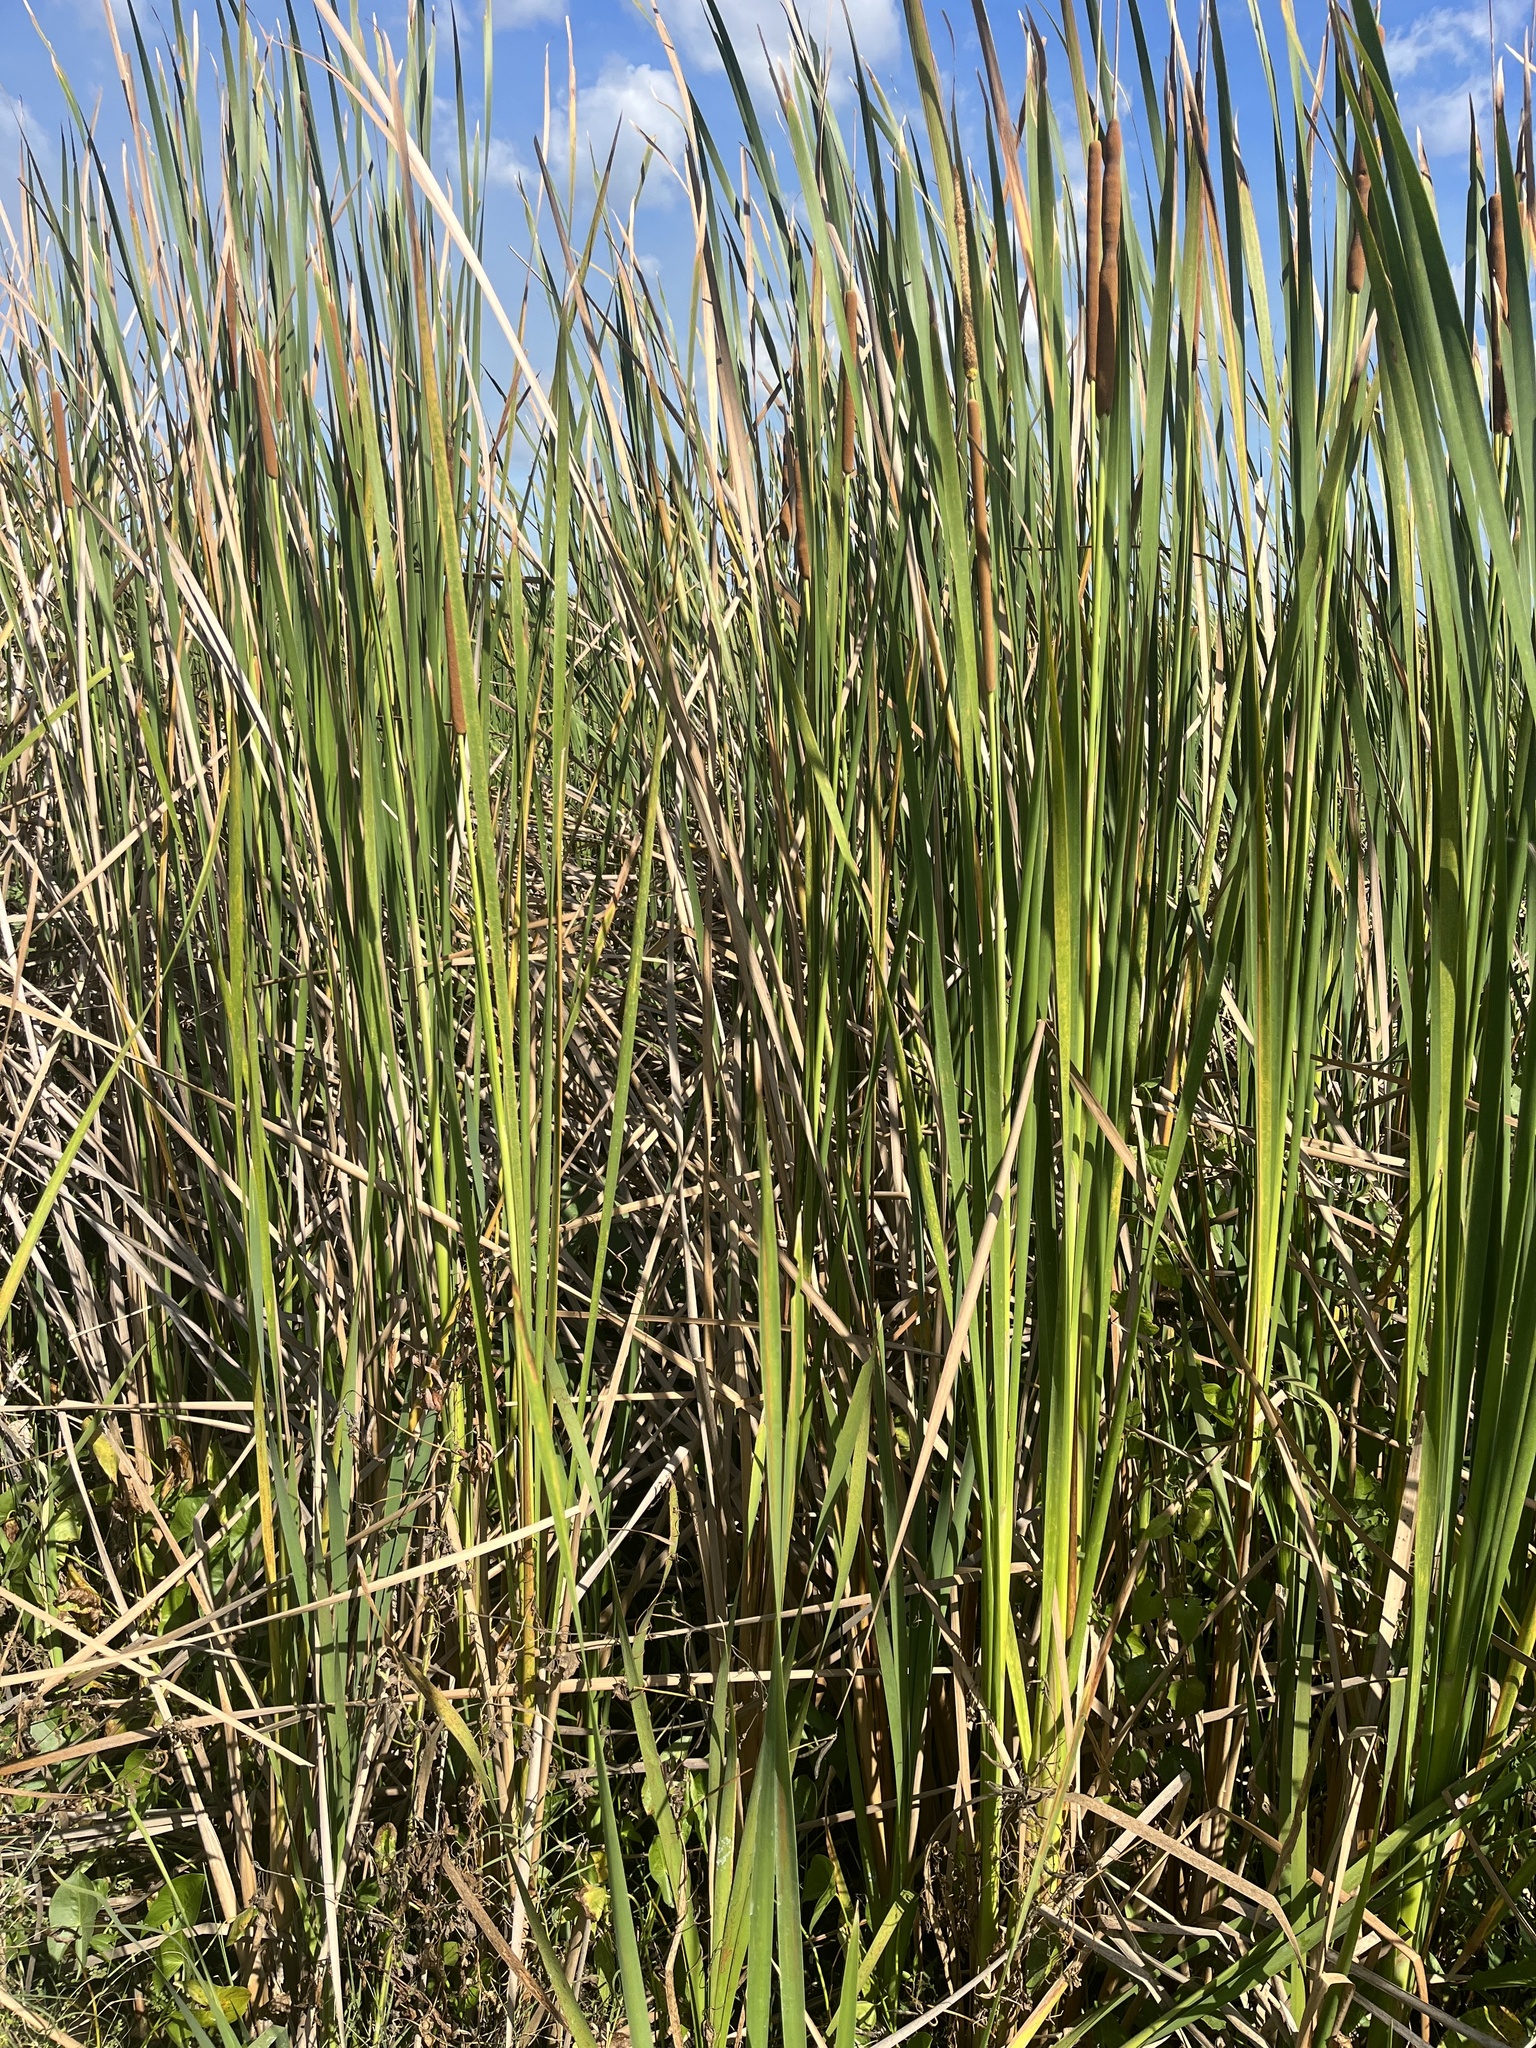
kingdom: Plantae
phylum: Tracheophyta
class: Liliopsida
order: Poales
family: Typhaceae
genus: Typha
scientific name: Typha domingensis
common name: Southern cattail
